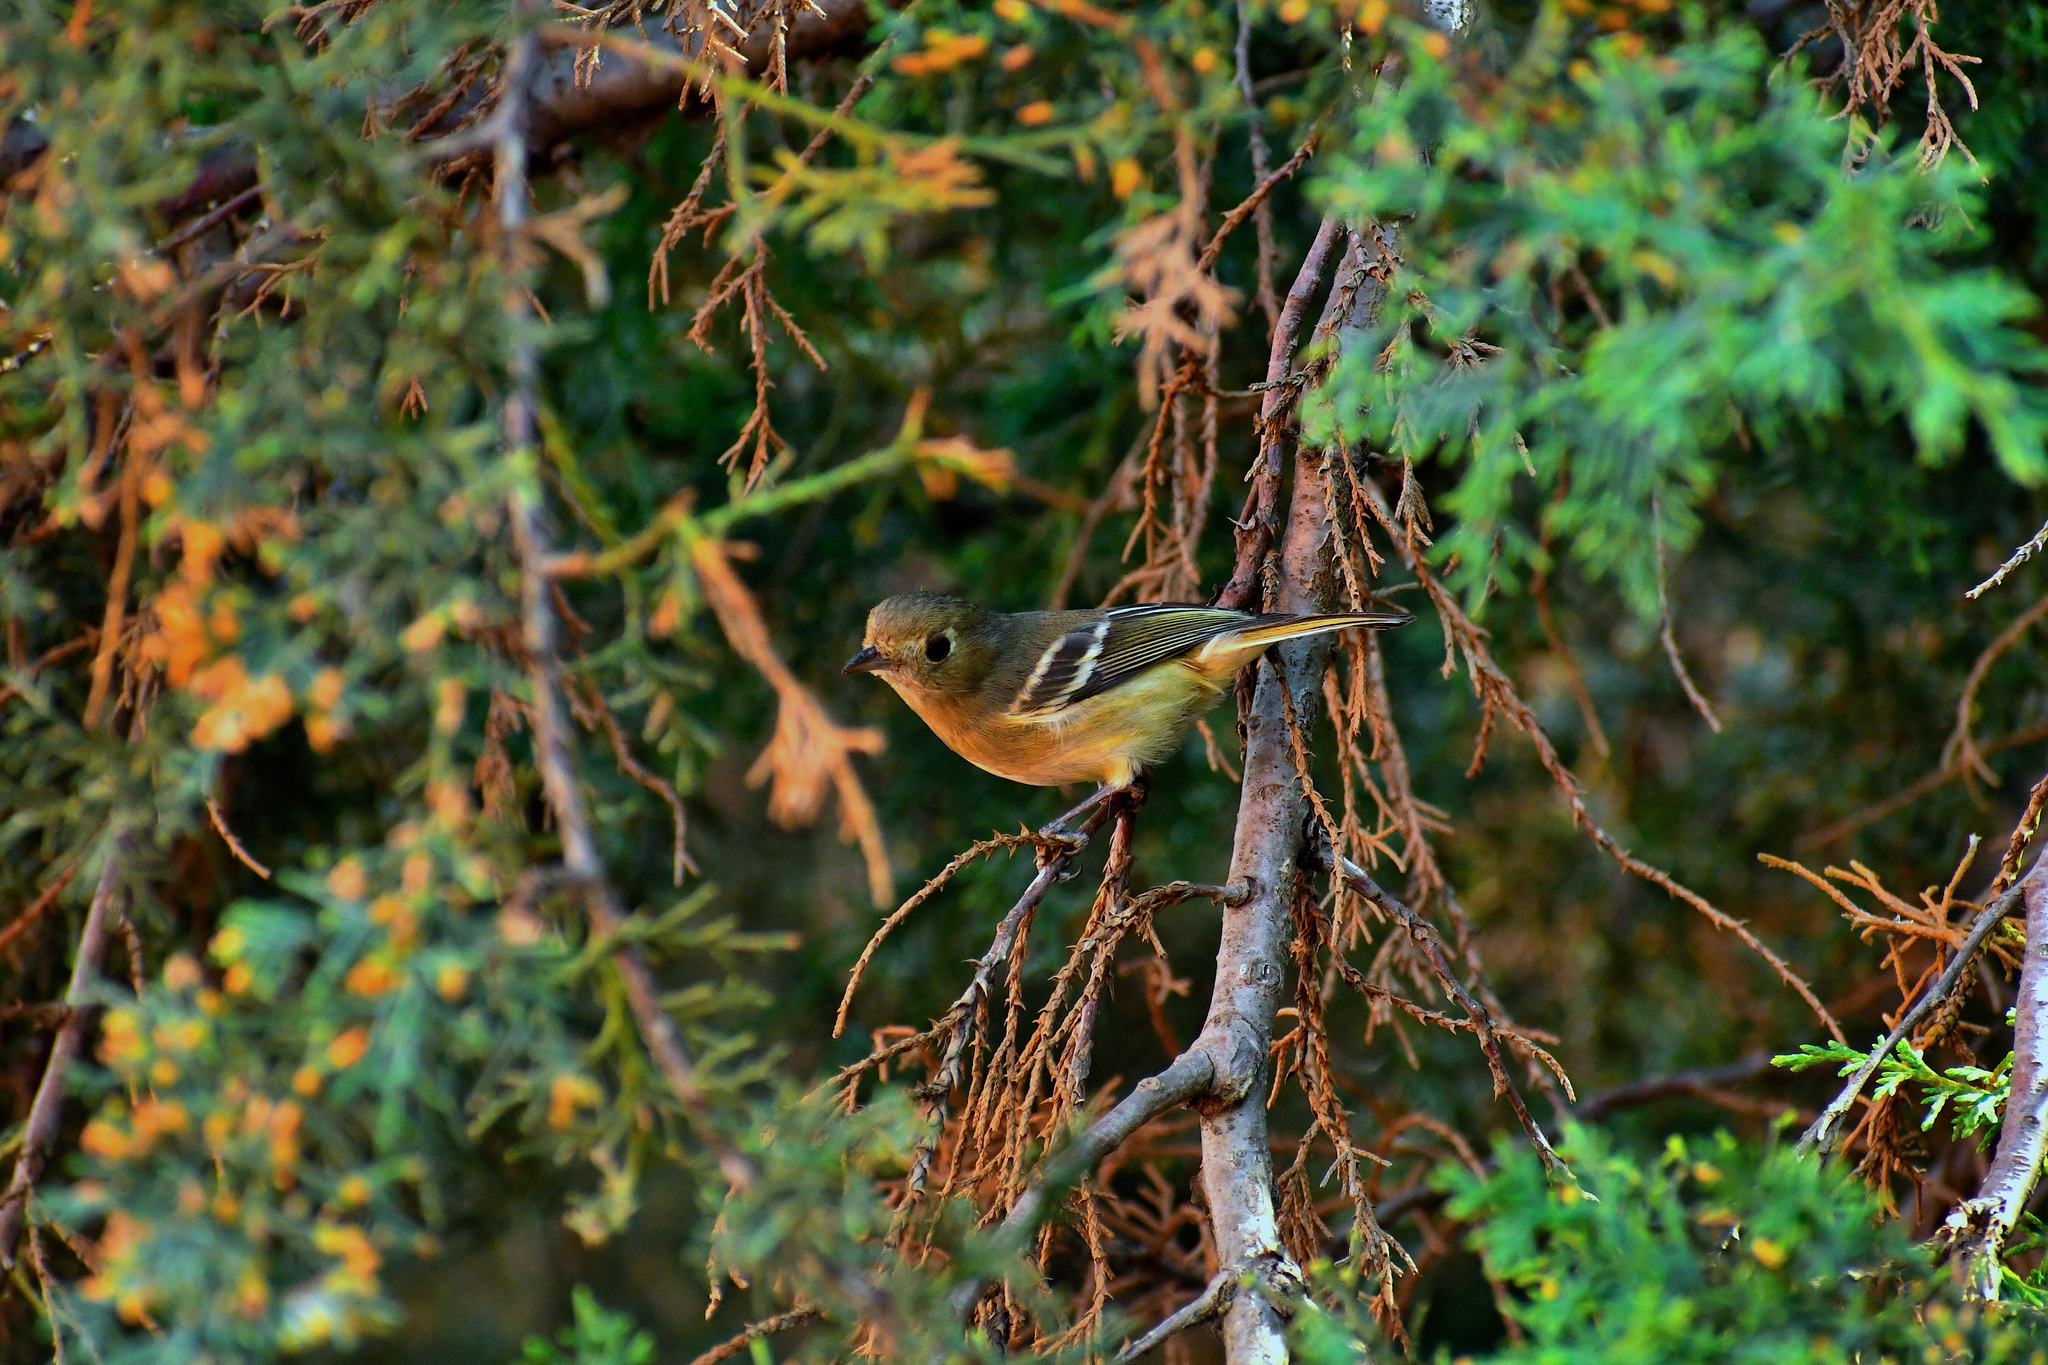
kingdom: Animalia
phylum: Chordata
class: Aves
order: Passeriformes
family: Vireonidae
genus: Vireo
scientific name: Vireo huttoni
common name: Hutton's vireo
